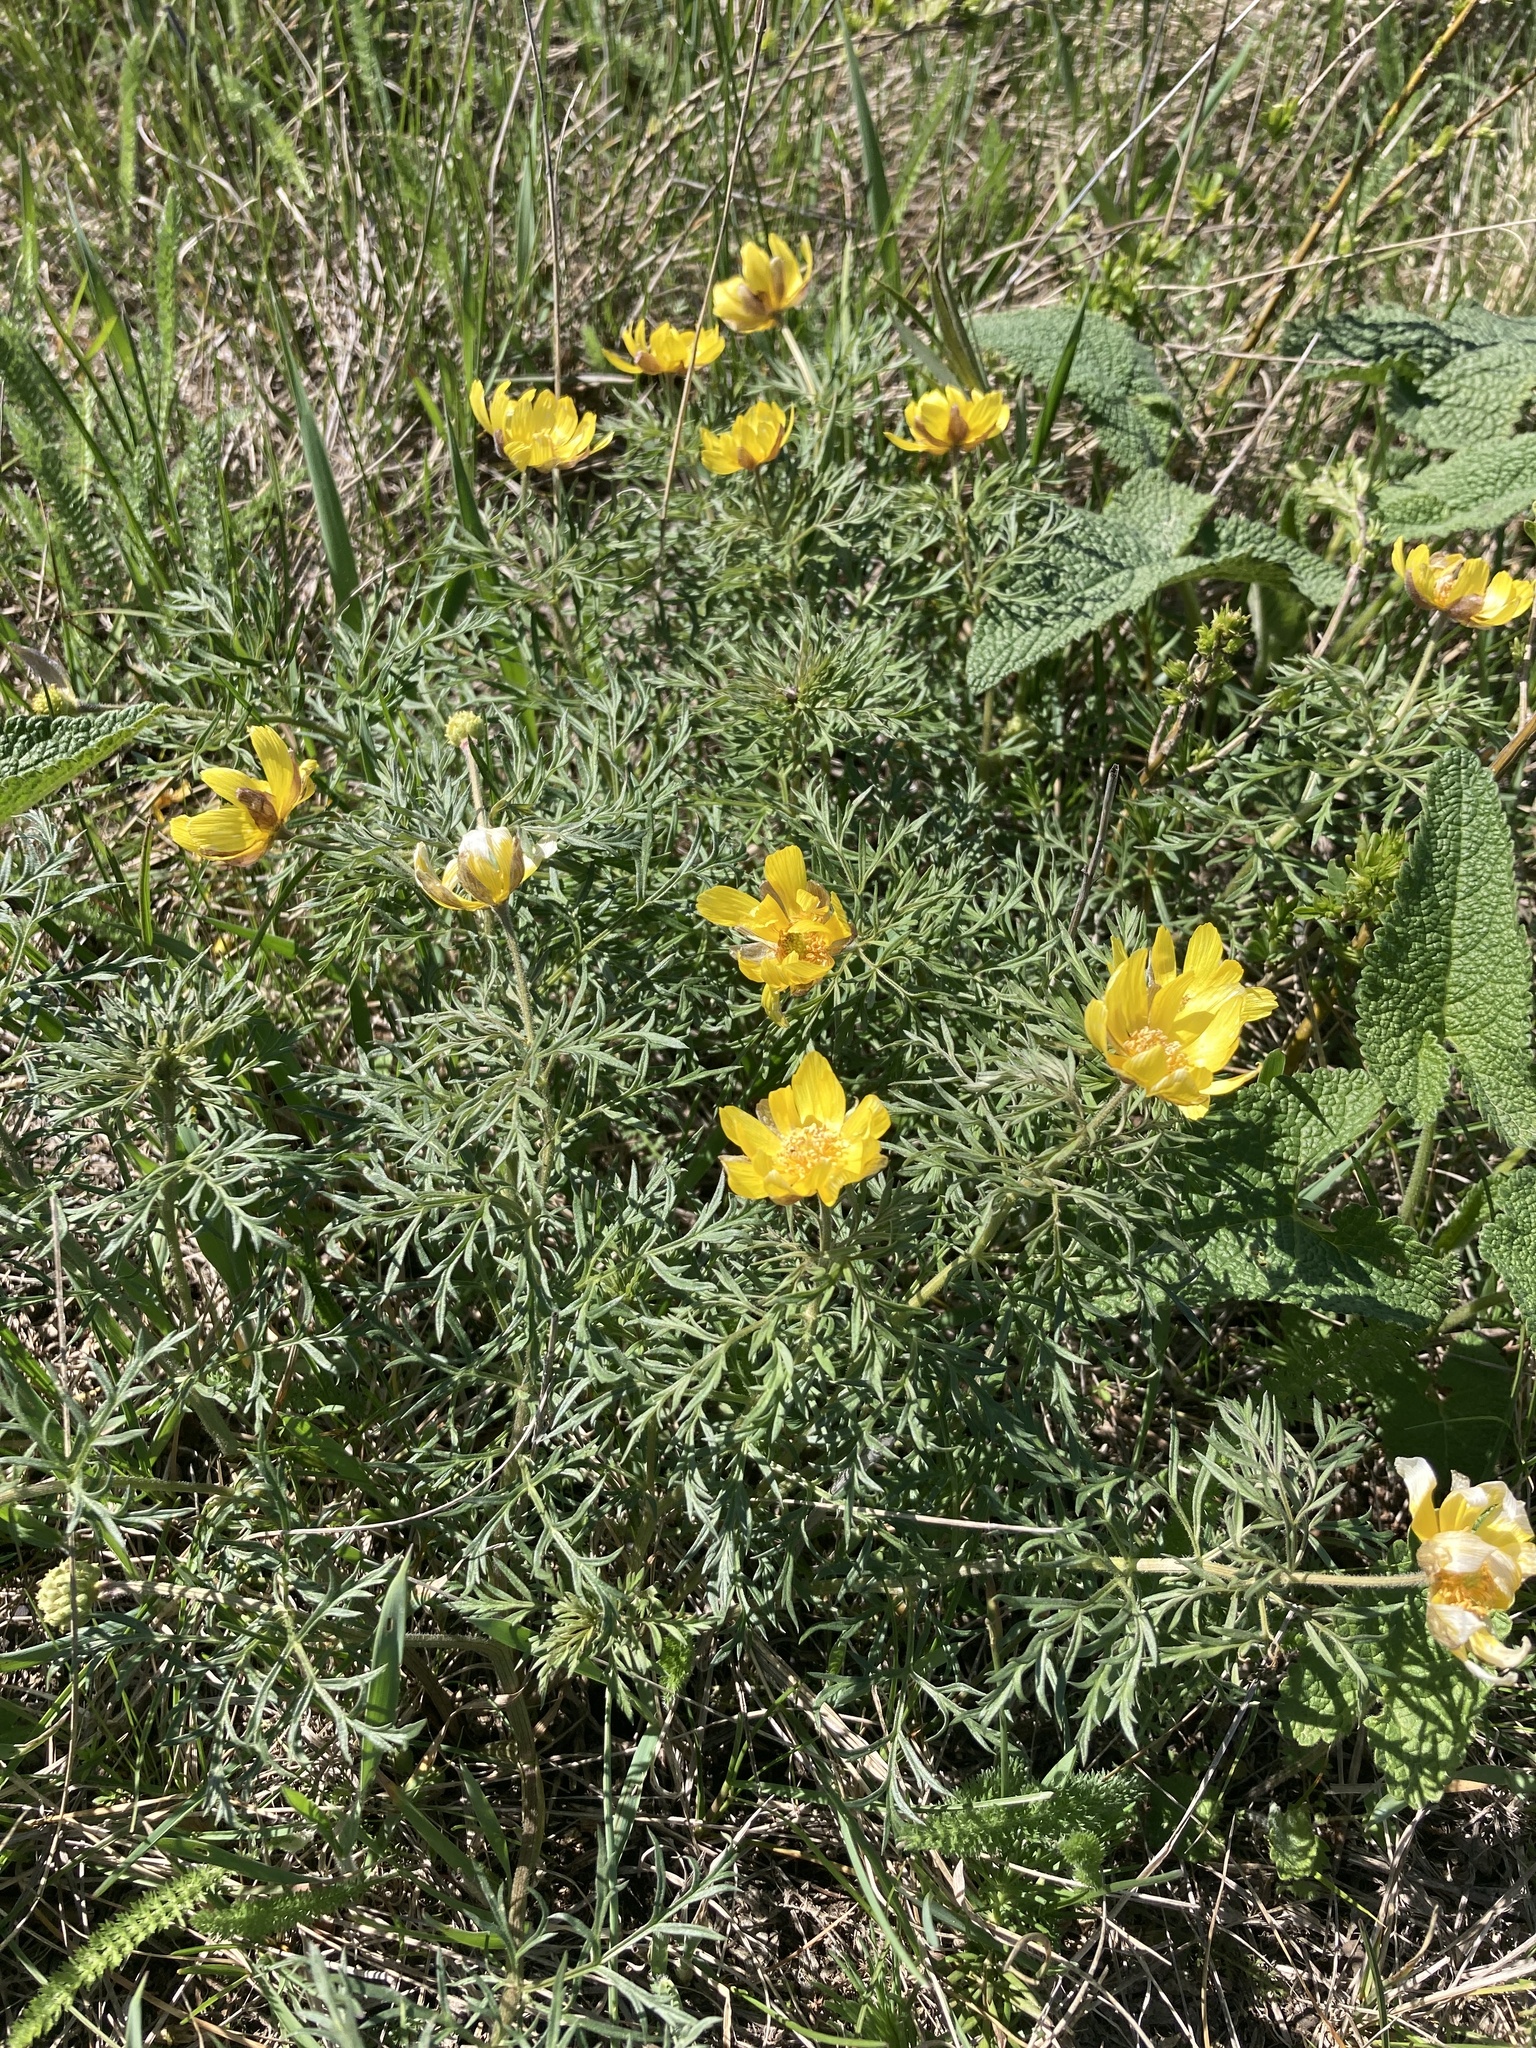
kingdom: Plantae
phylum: Tracheophyta
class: Magnoliopsida
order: Ranunculales
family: Ranunculaceae
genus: Adonis
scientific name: Adonis volgensis
